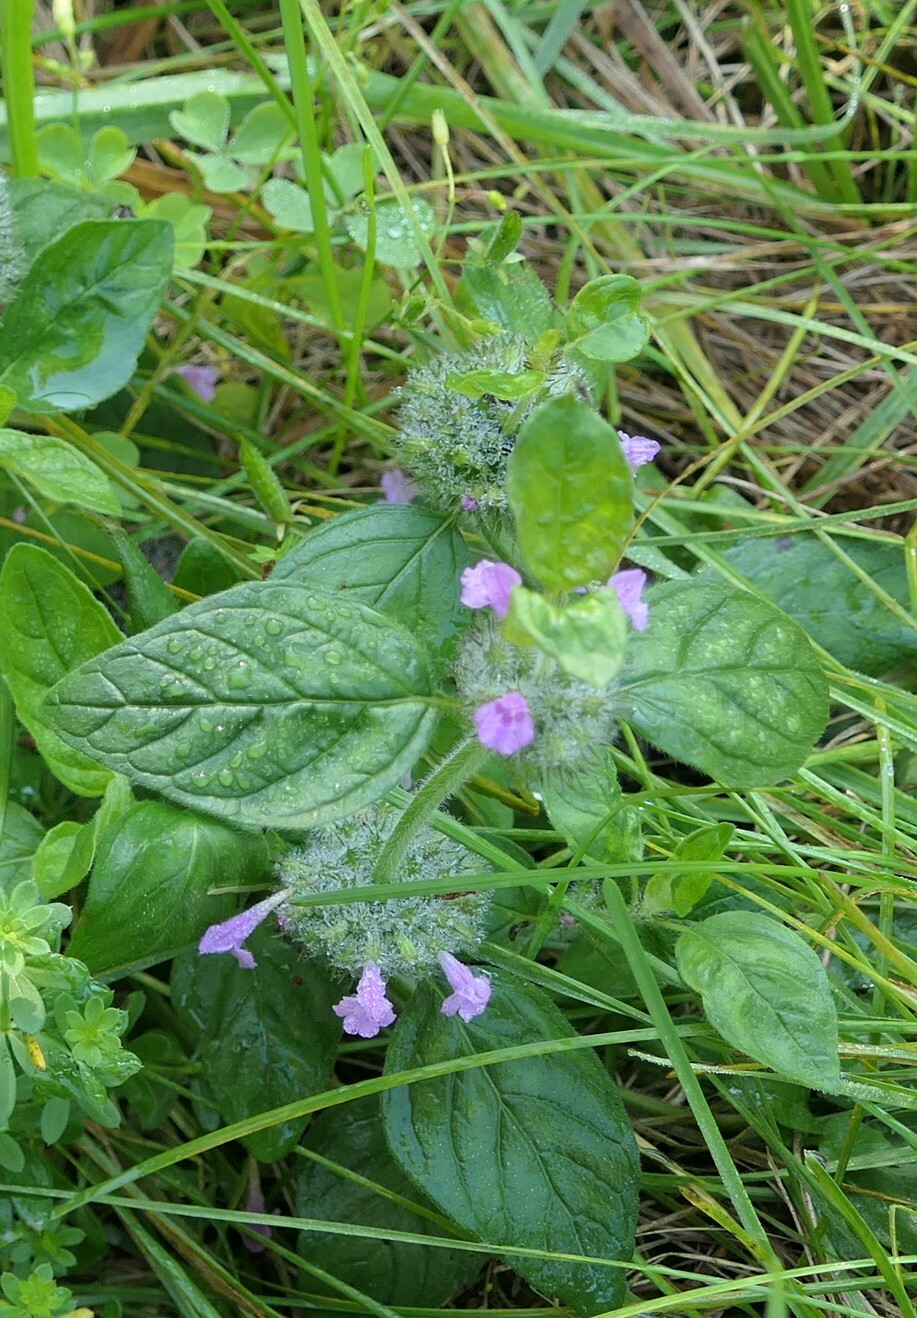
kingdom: Plantae
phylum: Tracheophyta
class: Magnoliopsida
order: Lamiales
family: Lamiaceae
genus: Clinopodium
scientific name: Clinopodium vulgare
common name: Wild basil
